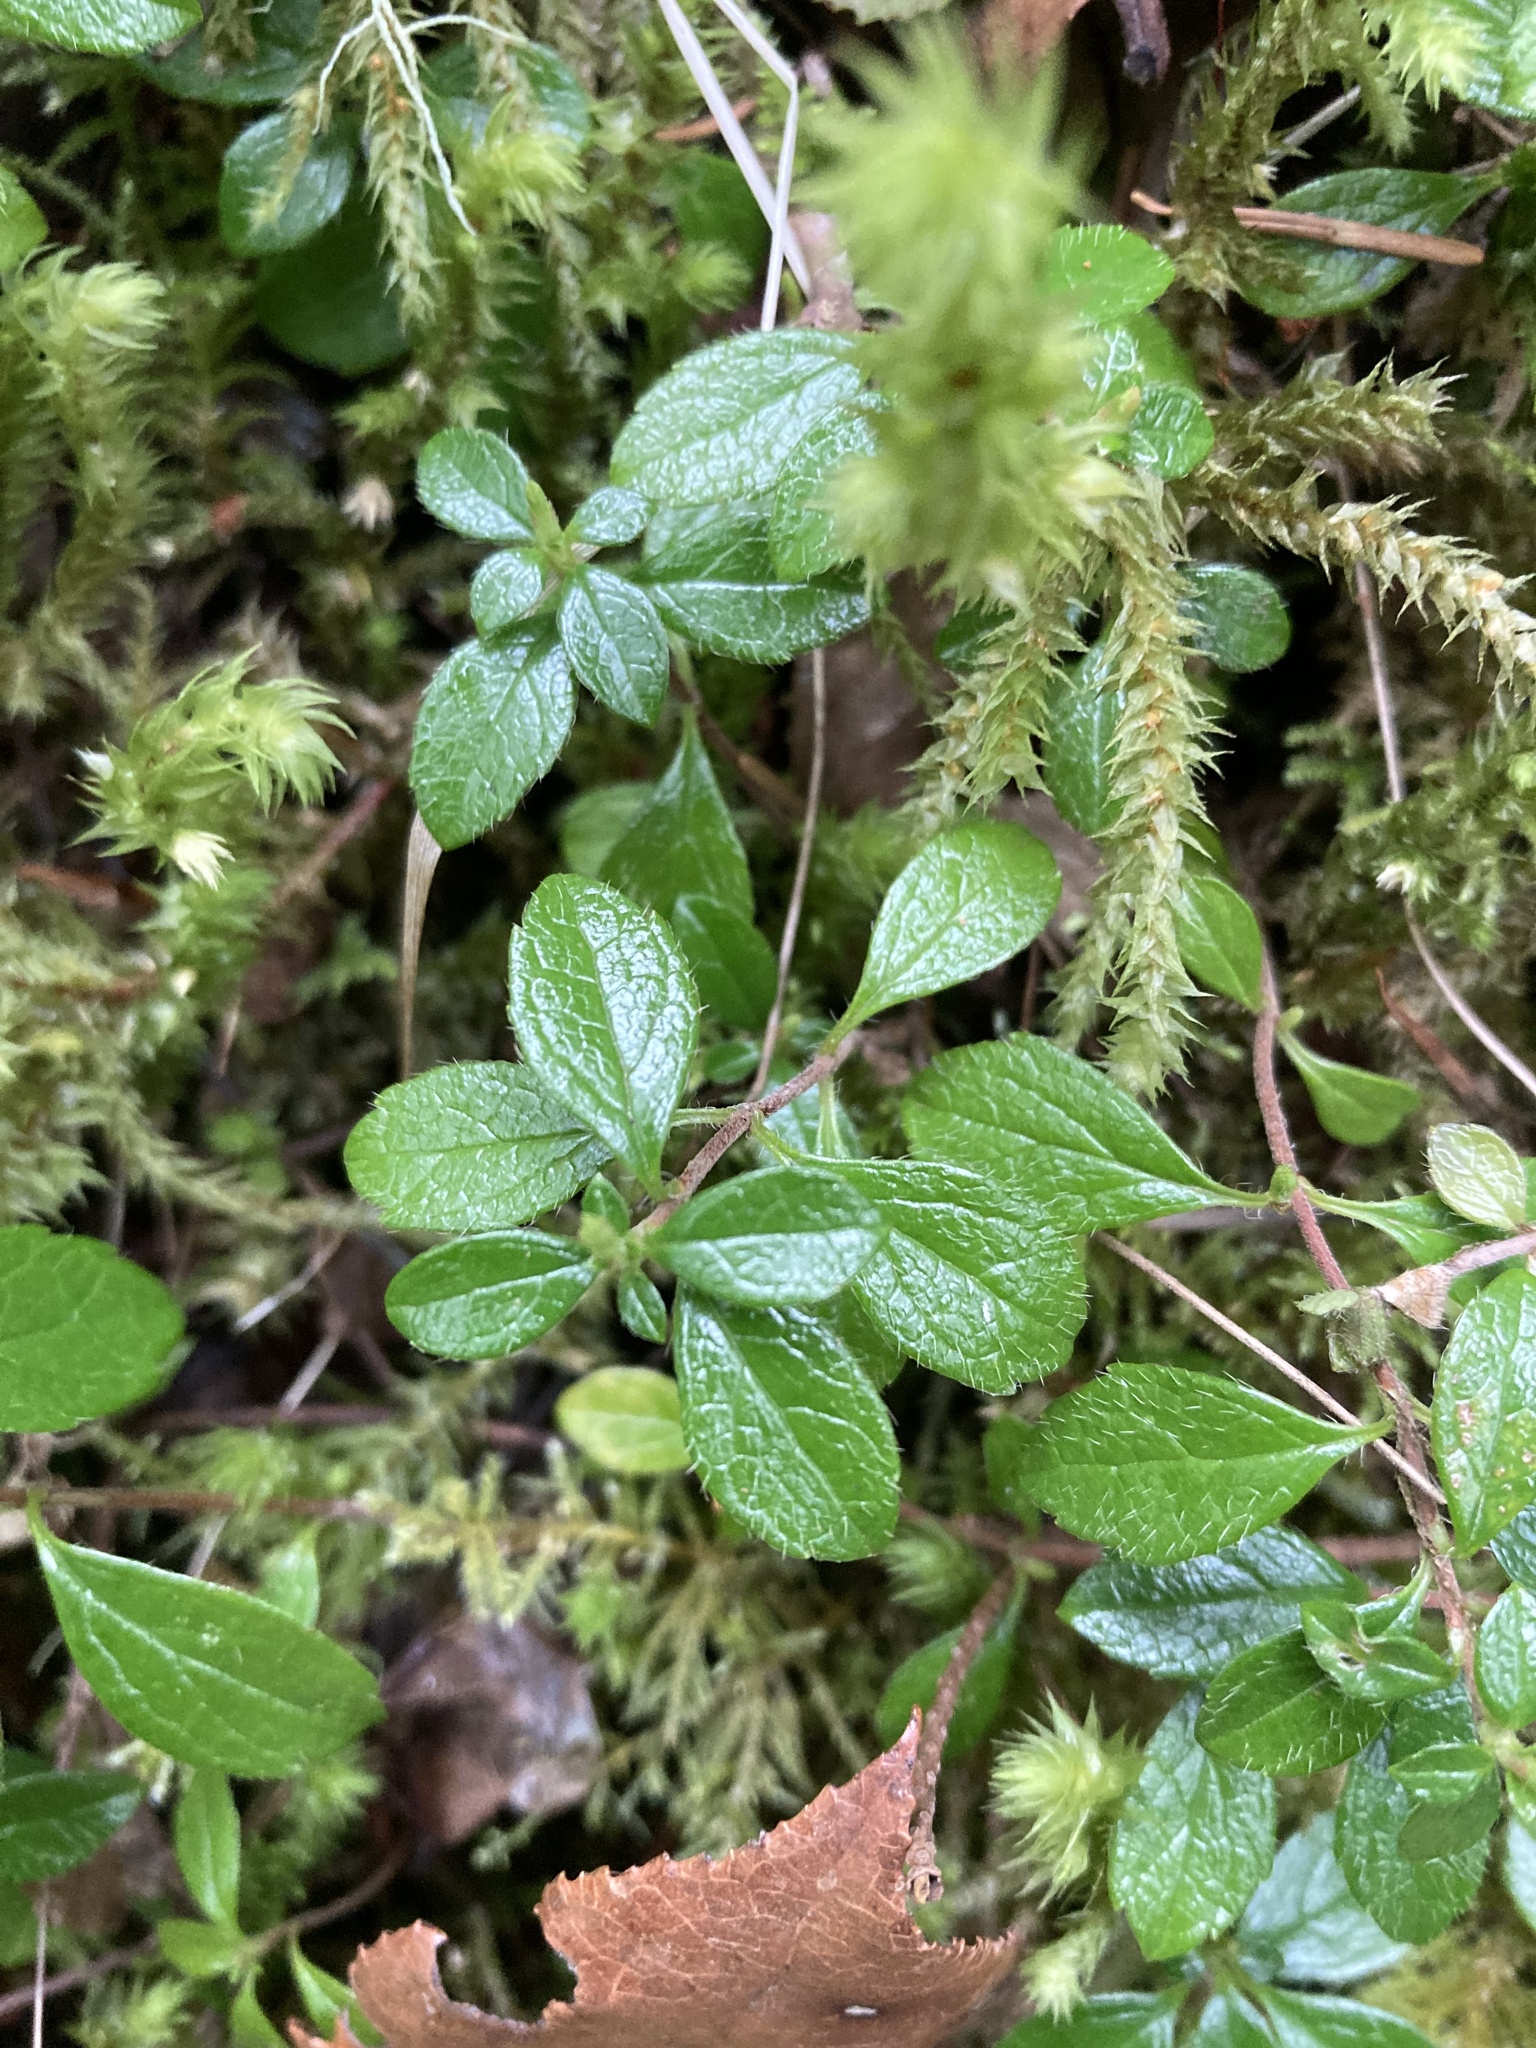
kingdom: Plantae
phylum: Tracheophyta
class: Magnoliopsida
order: Dipsacales
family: Caprifoliaceae
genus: Linnaea
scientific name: Linnaea borealis
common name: Twinflower
